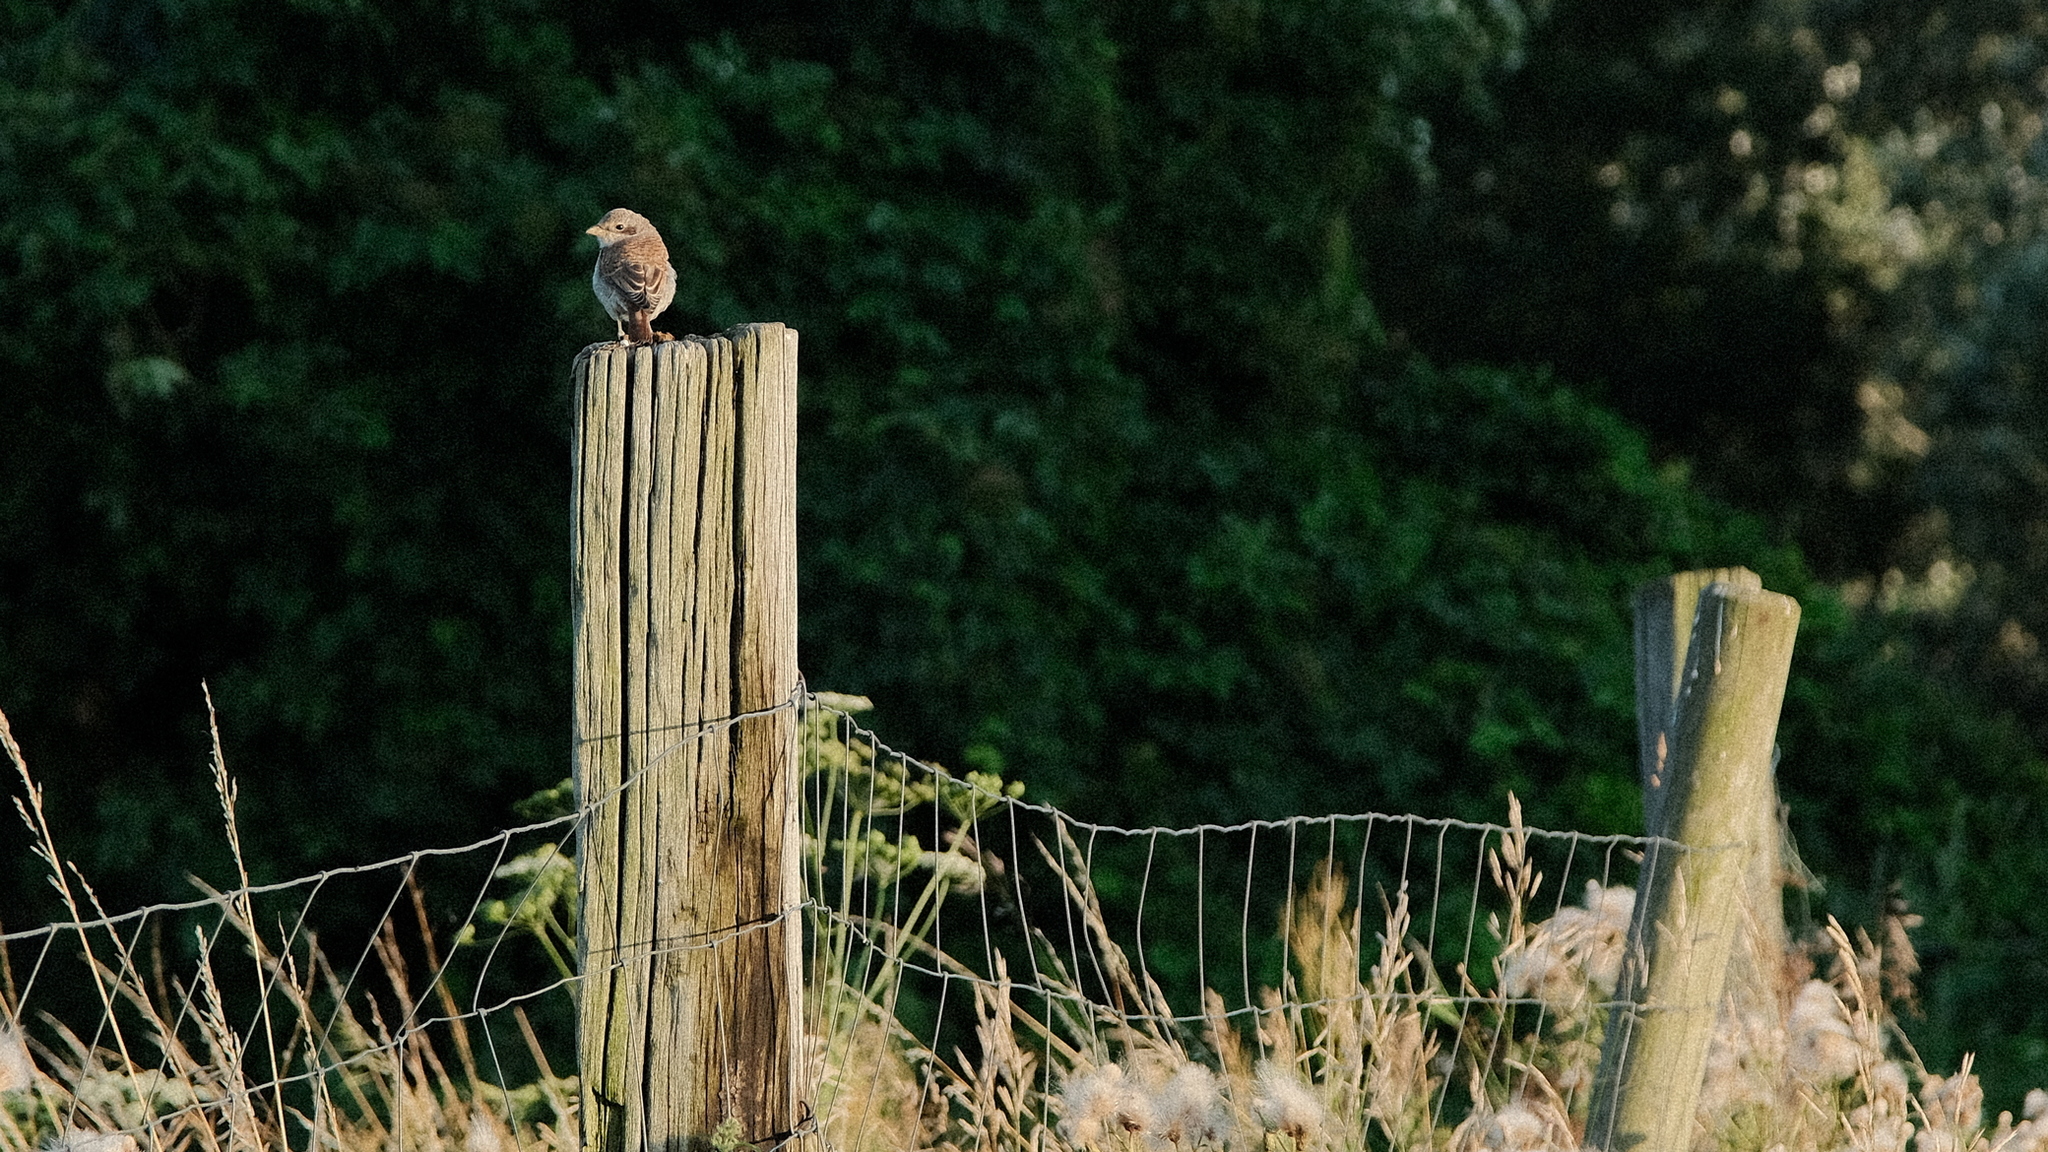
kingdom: Animalia
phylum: Chordata
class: Aves
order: Passeriformes
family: Laniidae
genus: Lanius
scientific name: Lanius collurio
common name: Red-backed shrike
